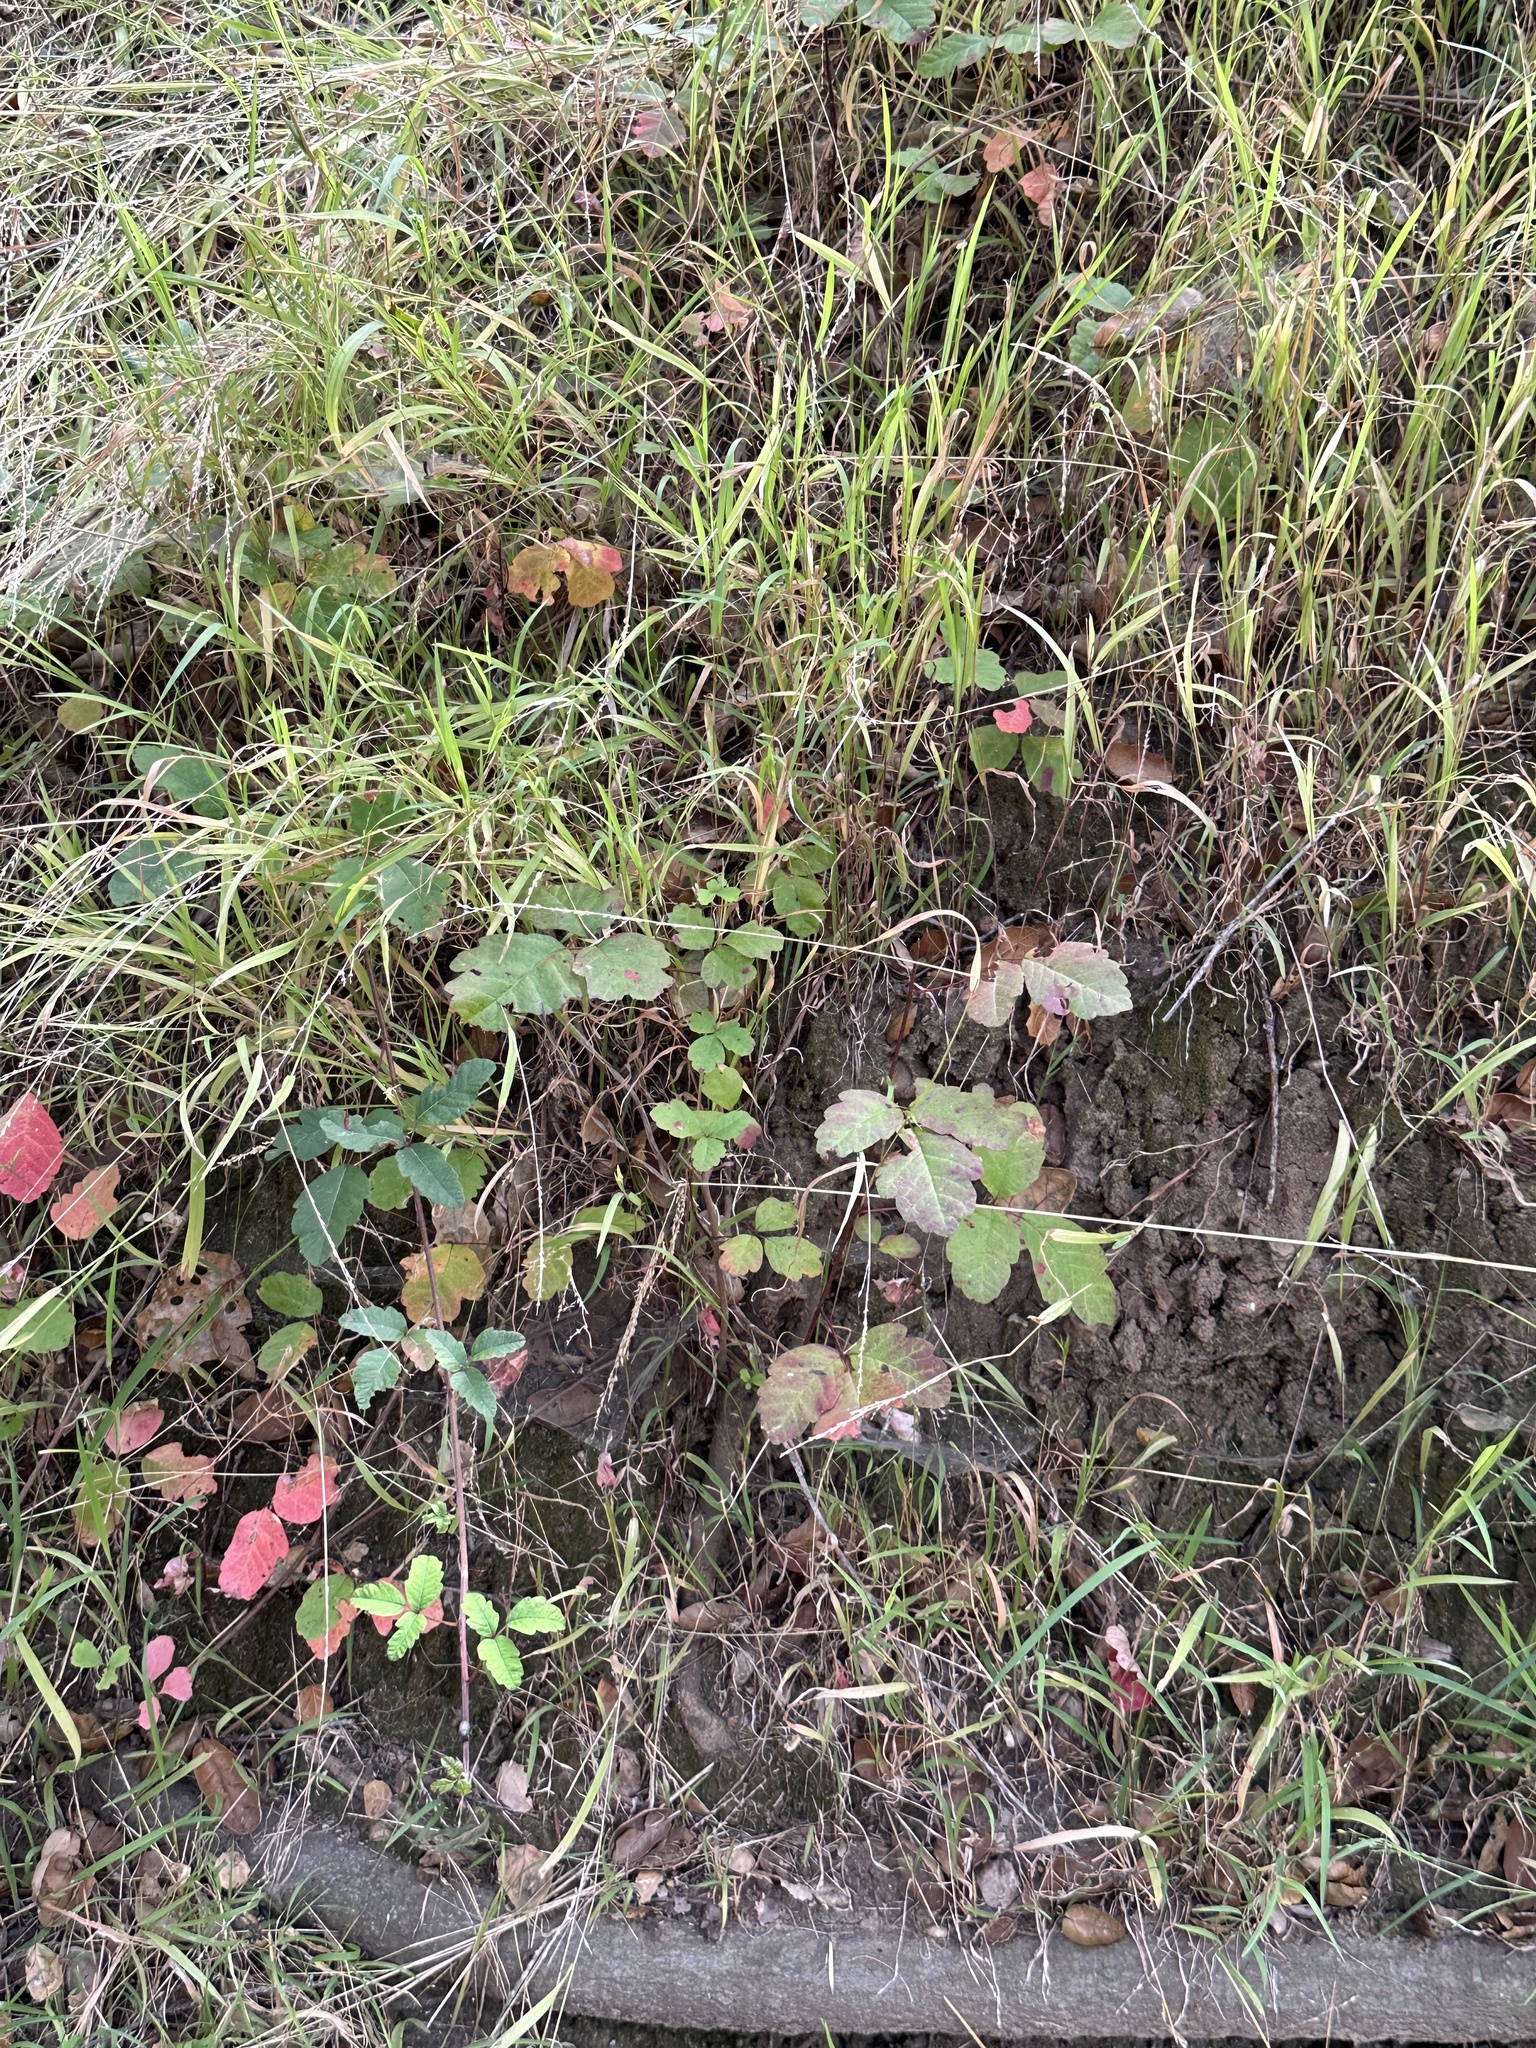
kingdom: Plantae
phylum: Tracheophyta
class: Magnoliopsida
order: Sapindales
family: Anacardiaceae
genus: Toxicodendron
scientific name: Toxicodendron diversilobum
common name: Pacific poison-oak
